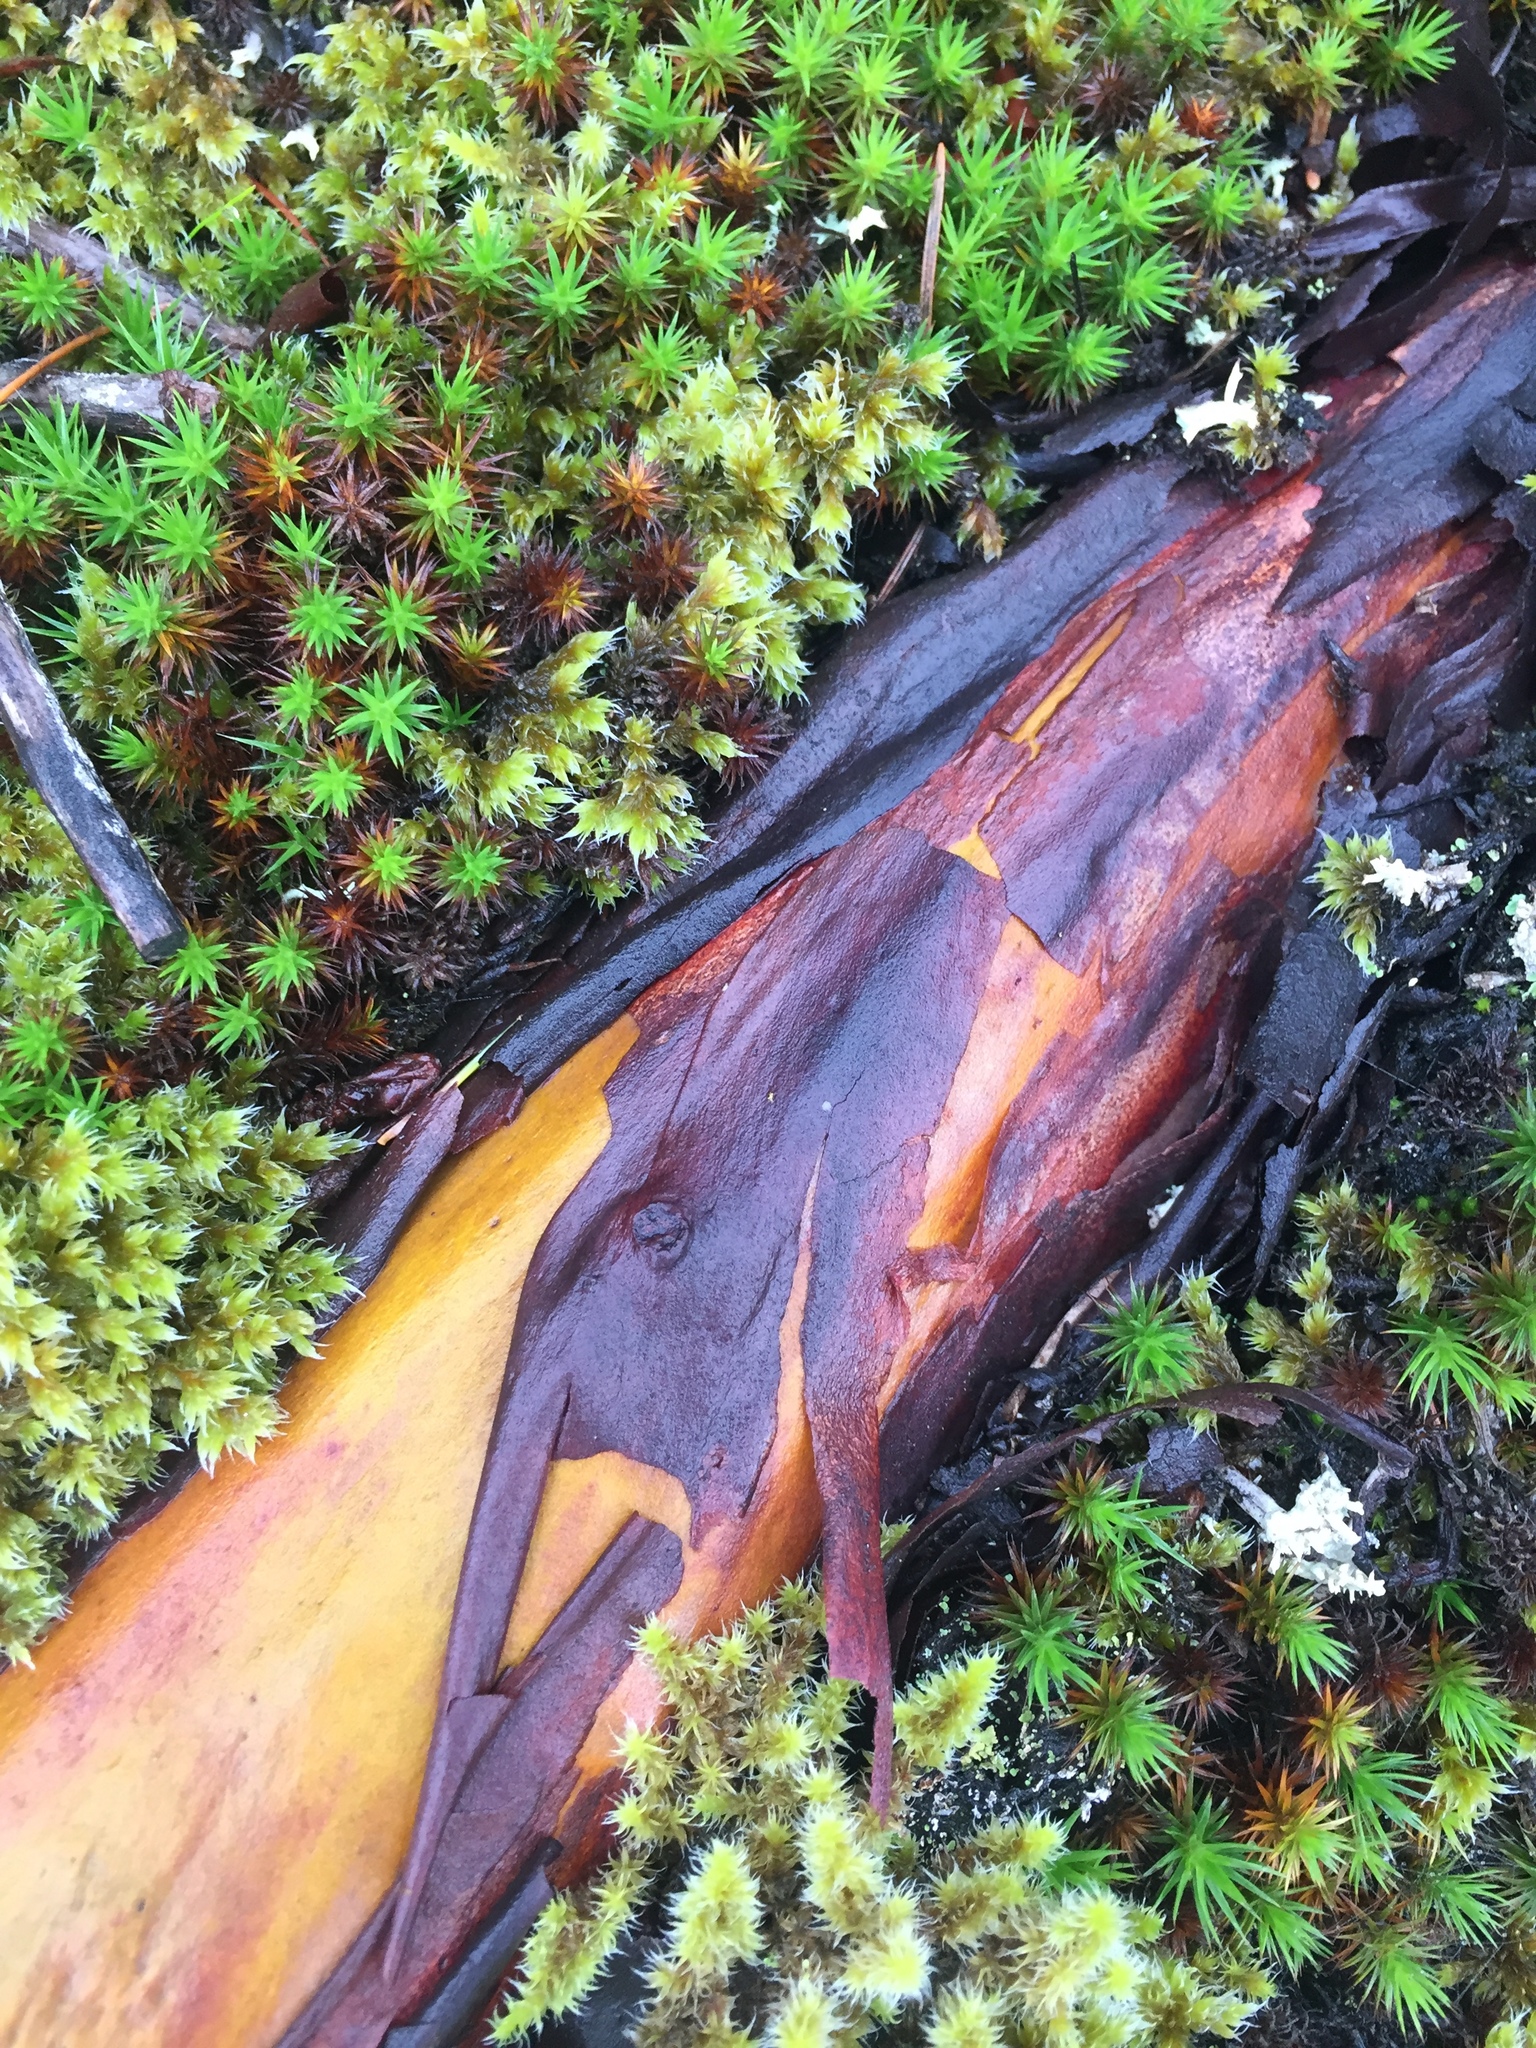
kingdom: Plantae
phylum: Tracheophyta
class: Magnoliopsida
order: Ericales
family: Ericaceae
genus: Arbutus
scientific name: Arbutus menziesii
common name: Pacific madrone
